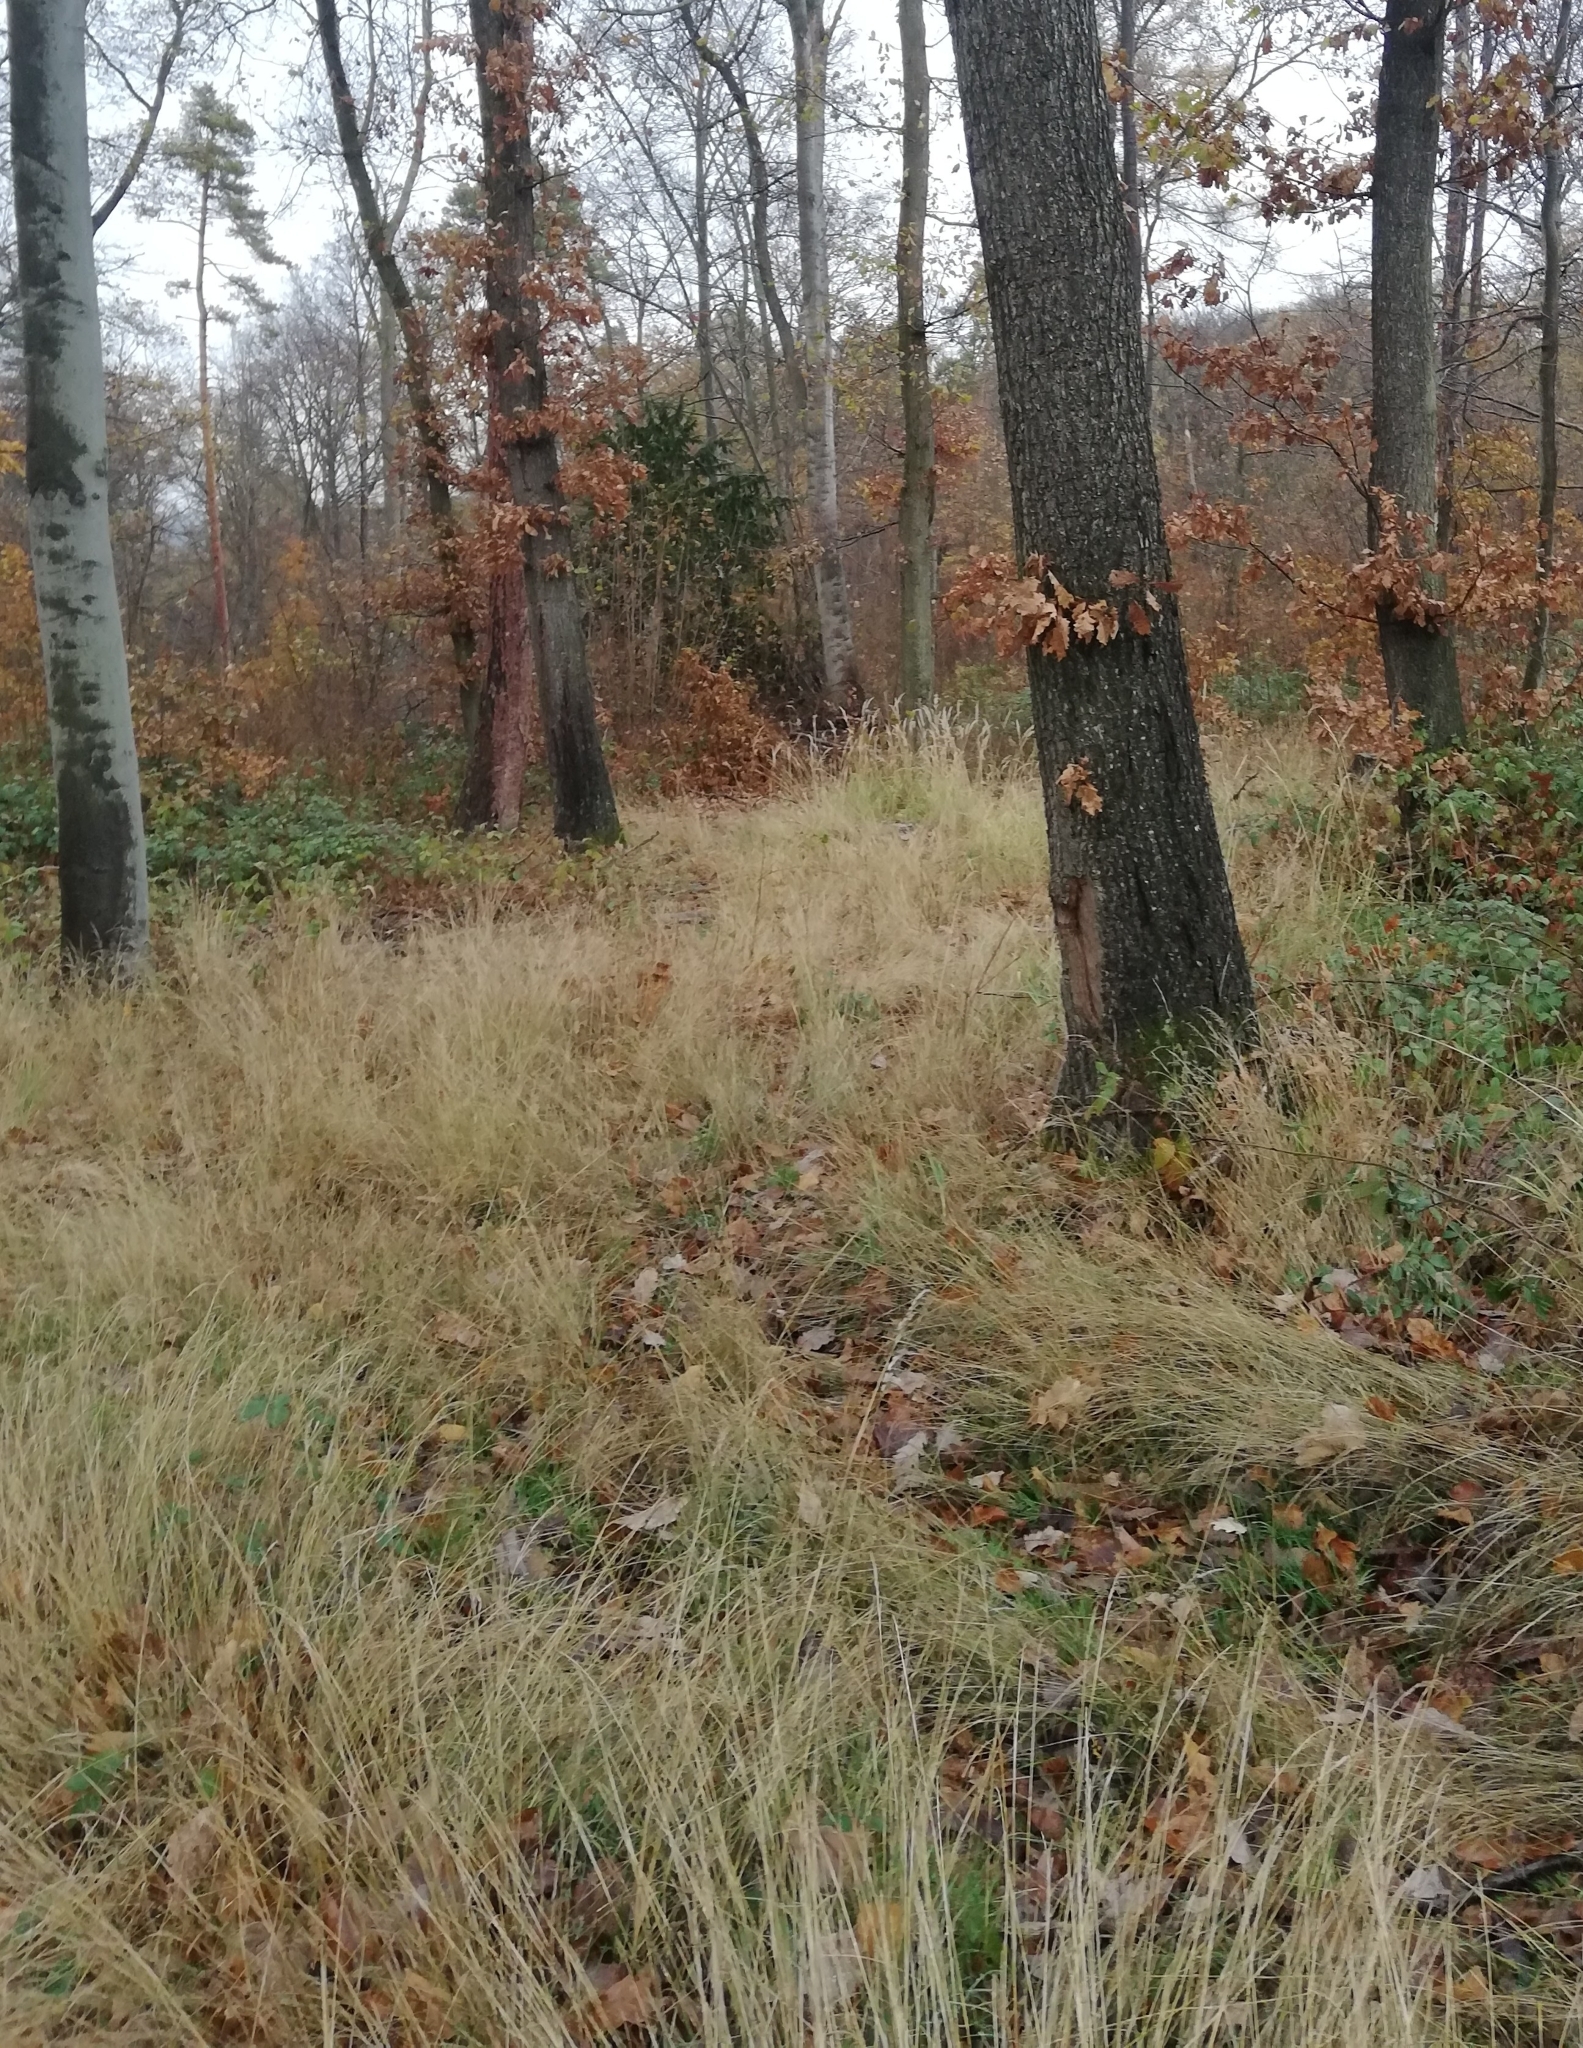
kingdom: Animalia
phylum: Chordata
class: Amphibia
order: Caudata
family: Salamandridae
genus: Salamandra
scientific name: Salamandra salamandra
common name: Fire salamander
